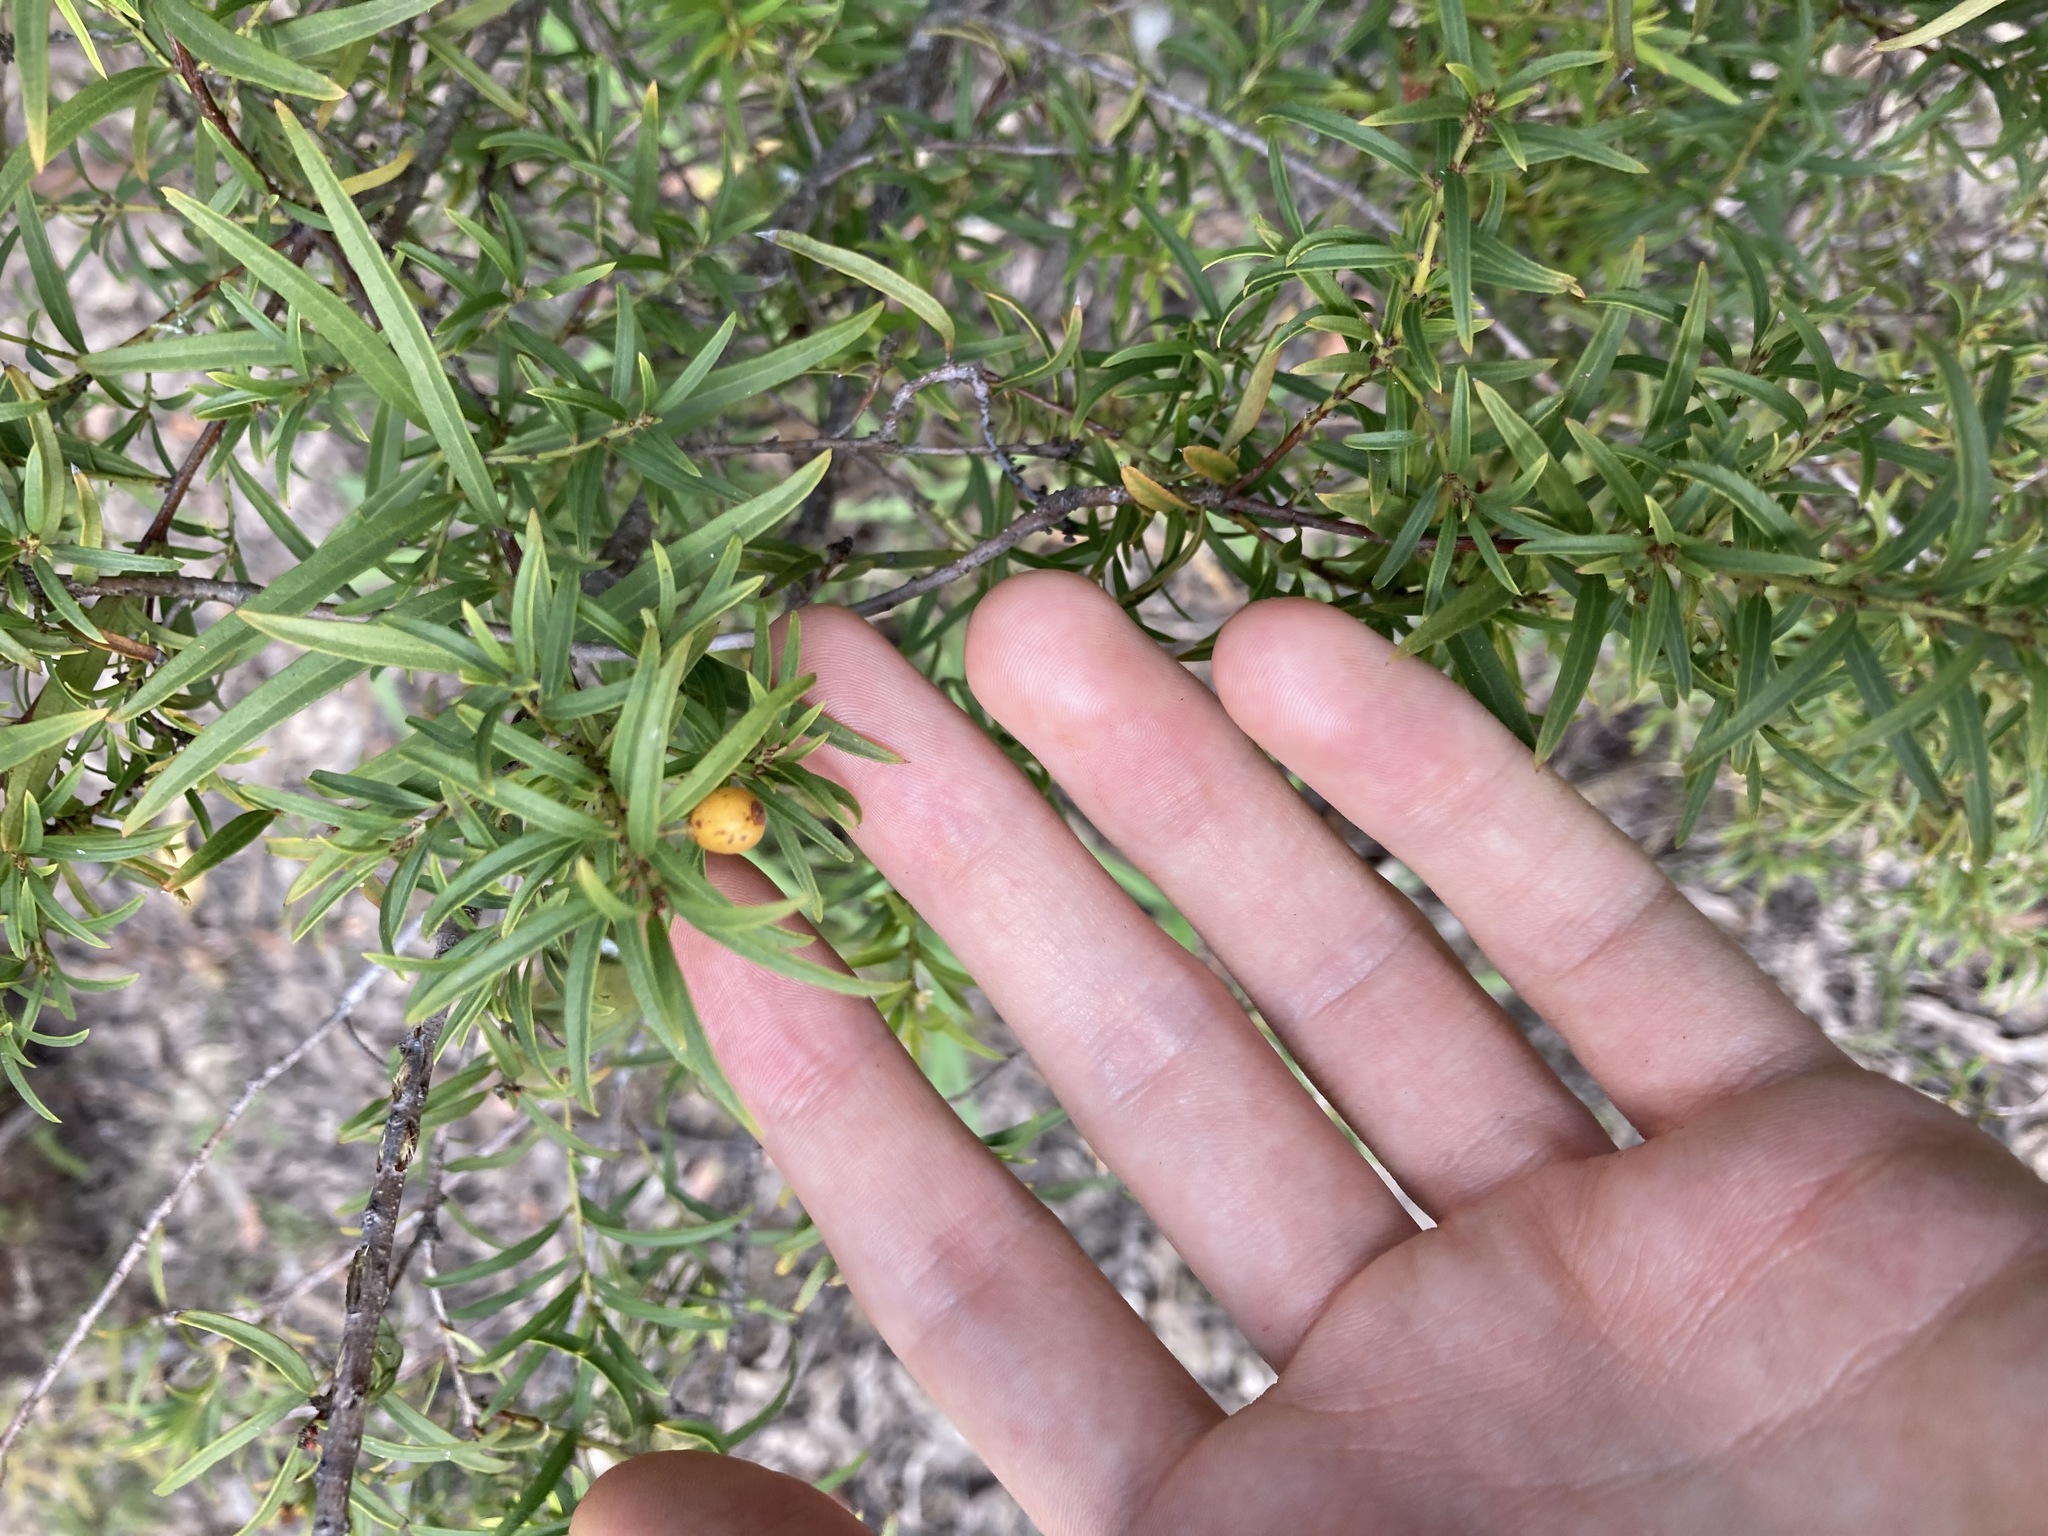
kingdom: Plantae
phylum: Tracheophyta
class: Magnoliopsida
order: Celastrales
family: Celastraceae
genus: Denhamia
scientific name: Denhamia silvestris
